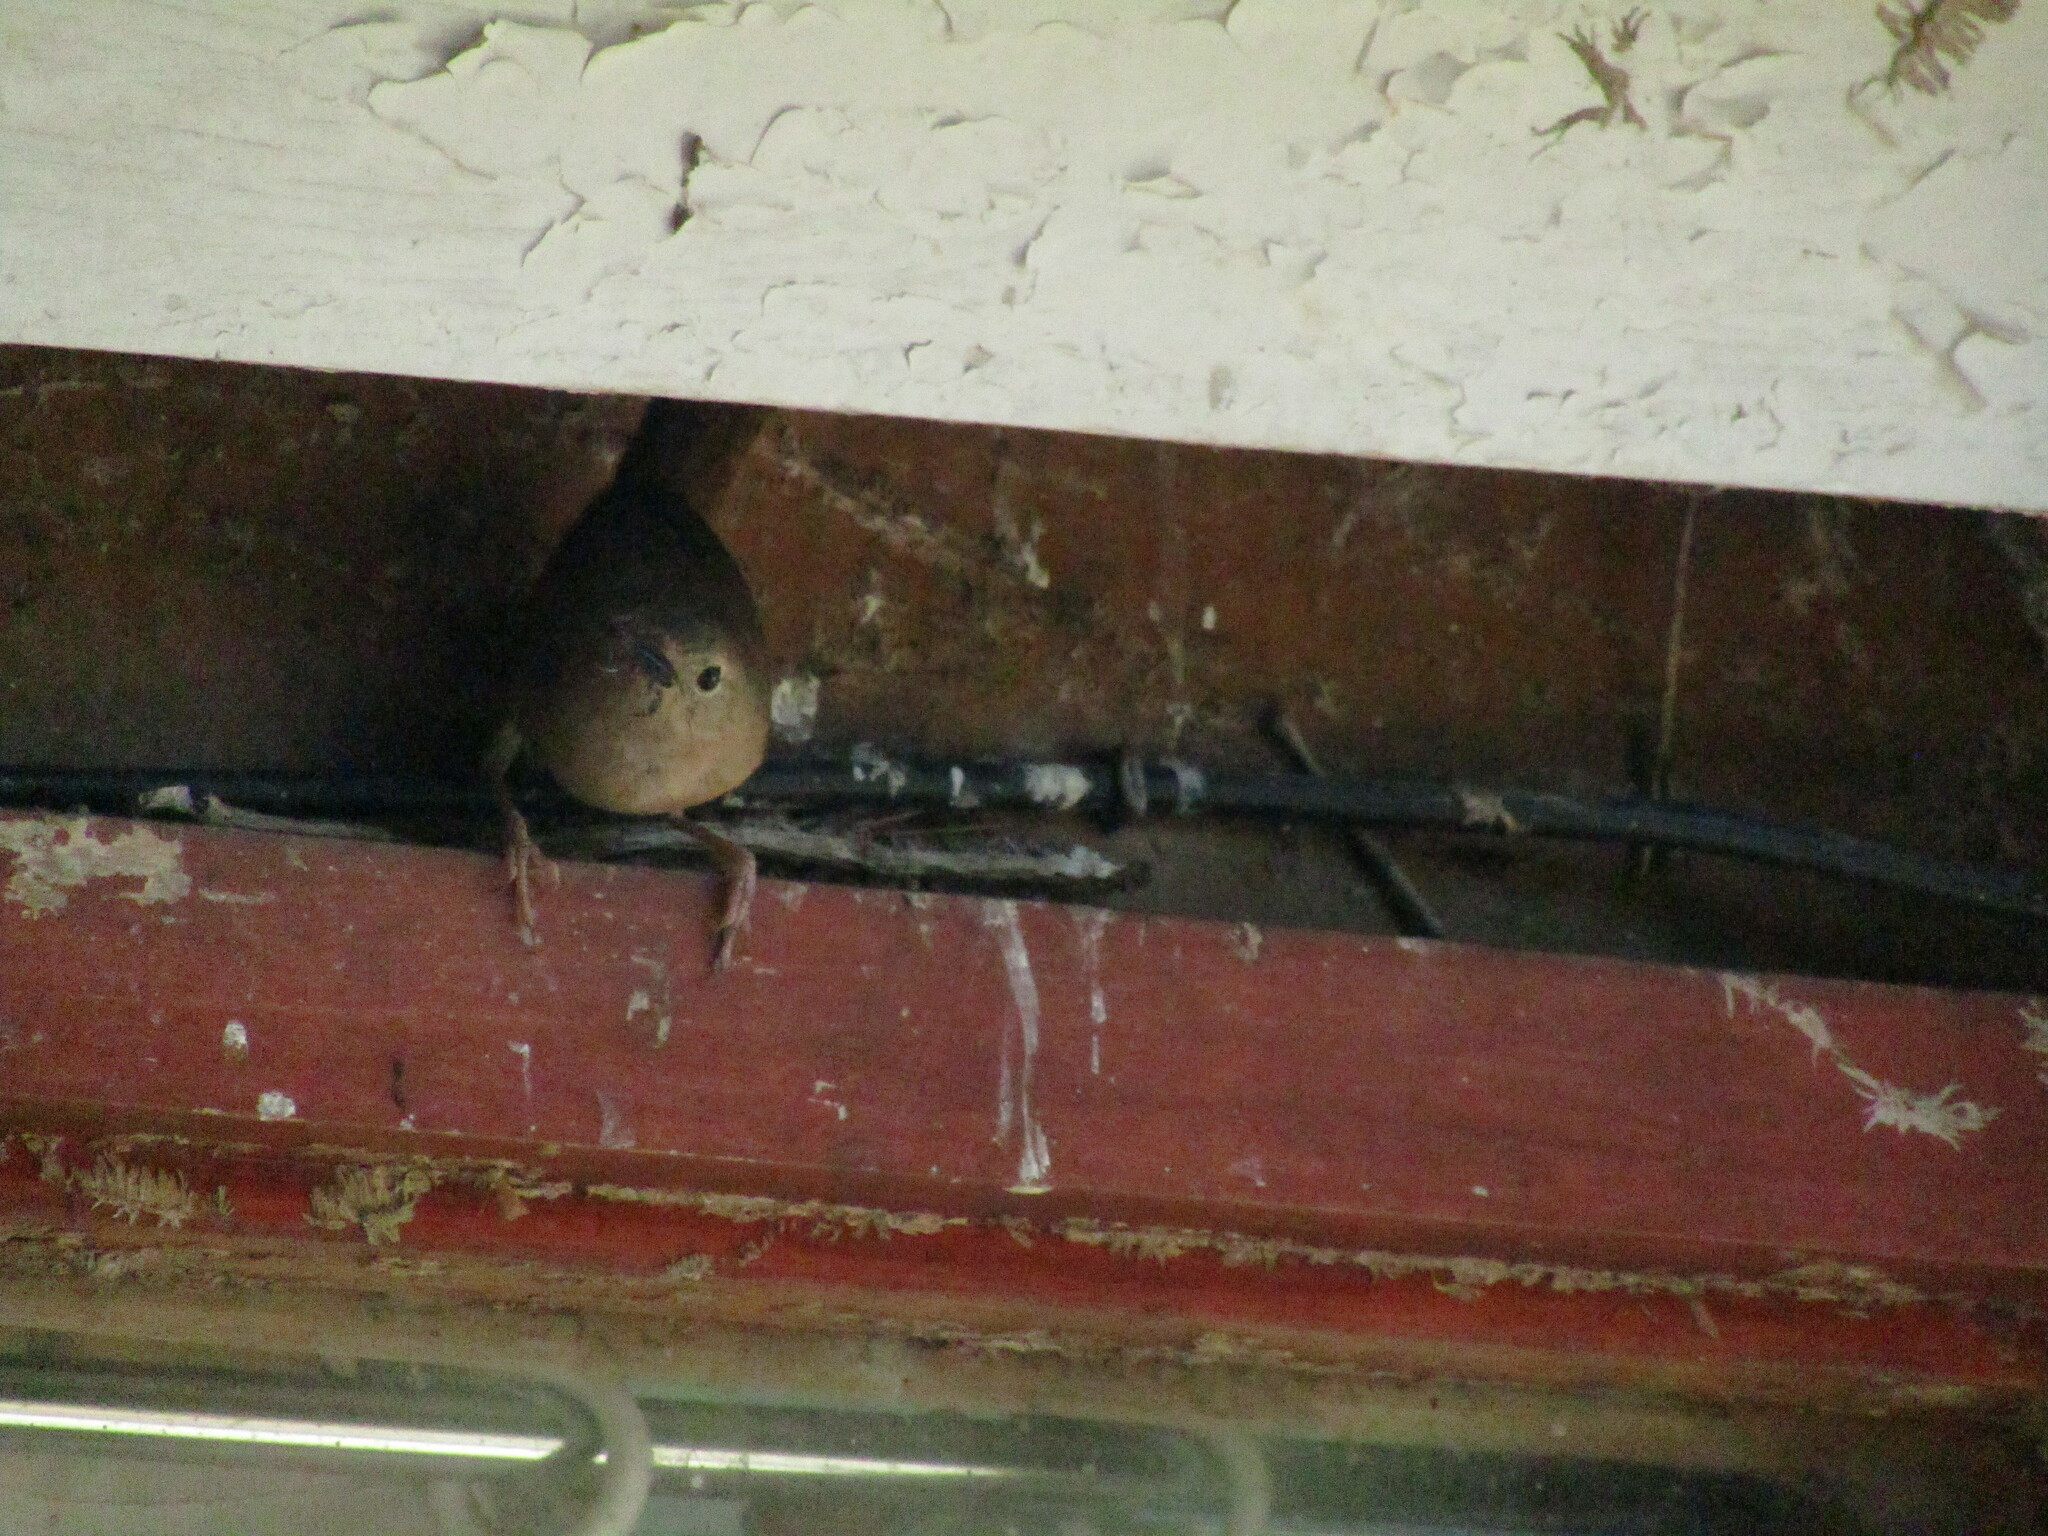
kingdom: Animalia
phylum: Chordata
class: Aves
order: Passeriformes
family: Troglodytidae
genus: Troglodytes
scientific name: Troglodytes aedon
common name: House wren
